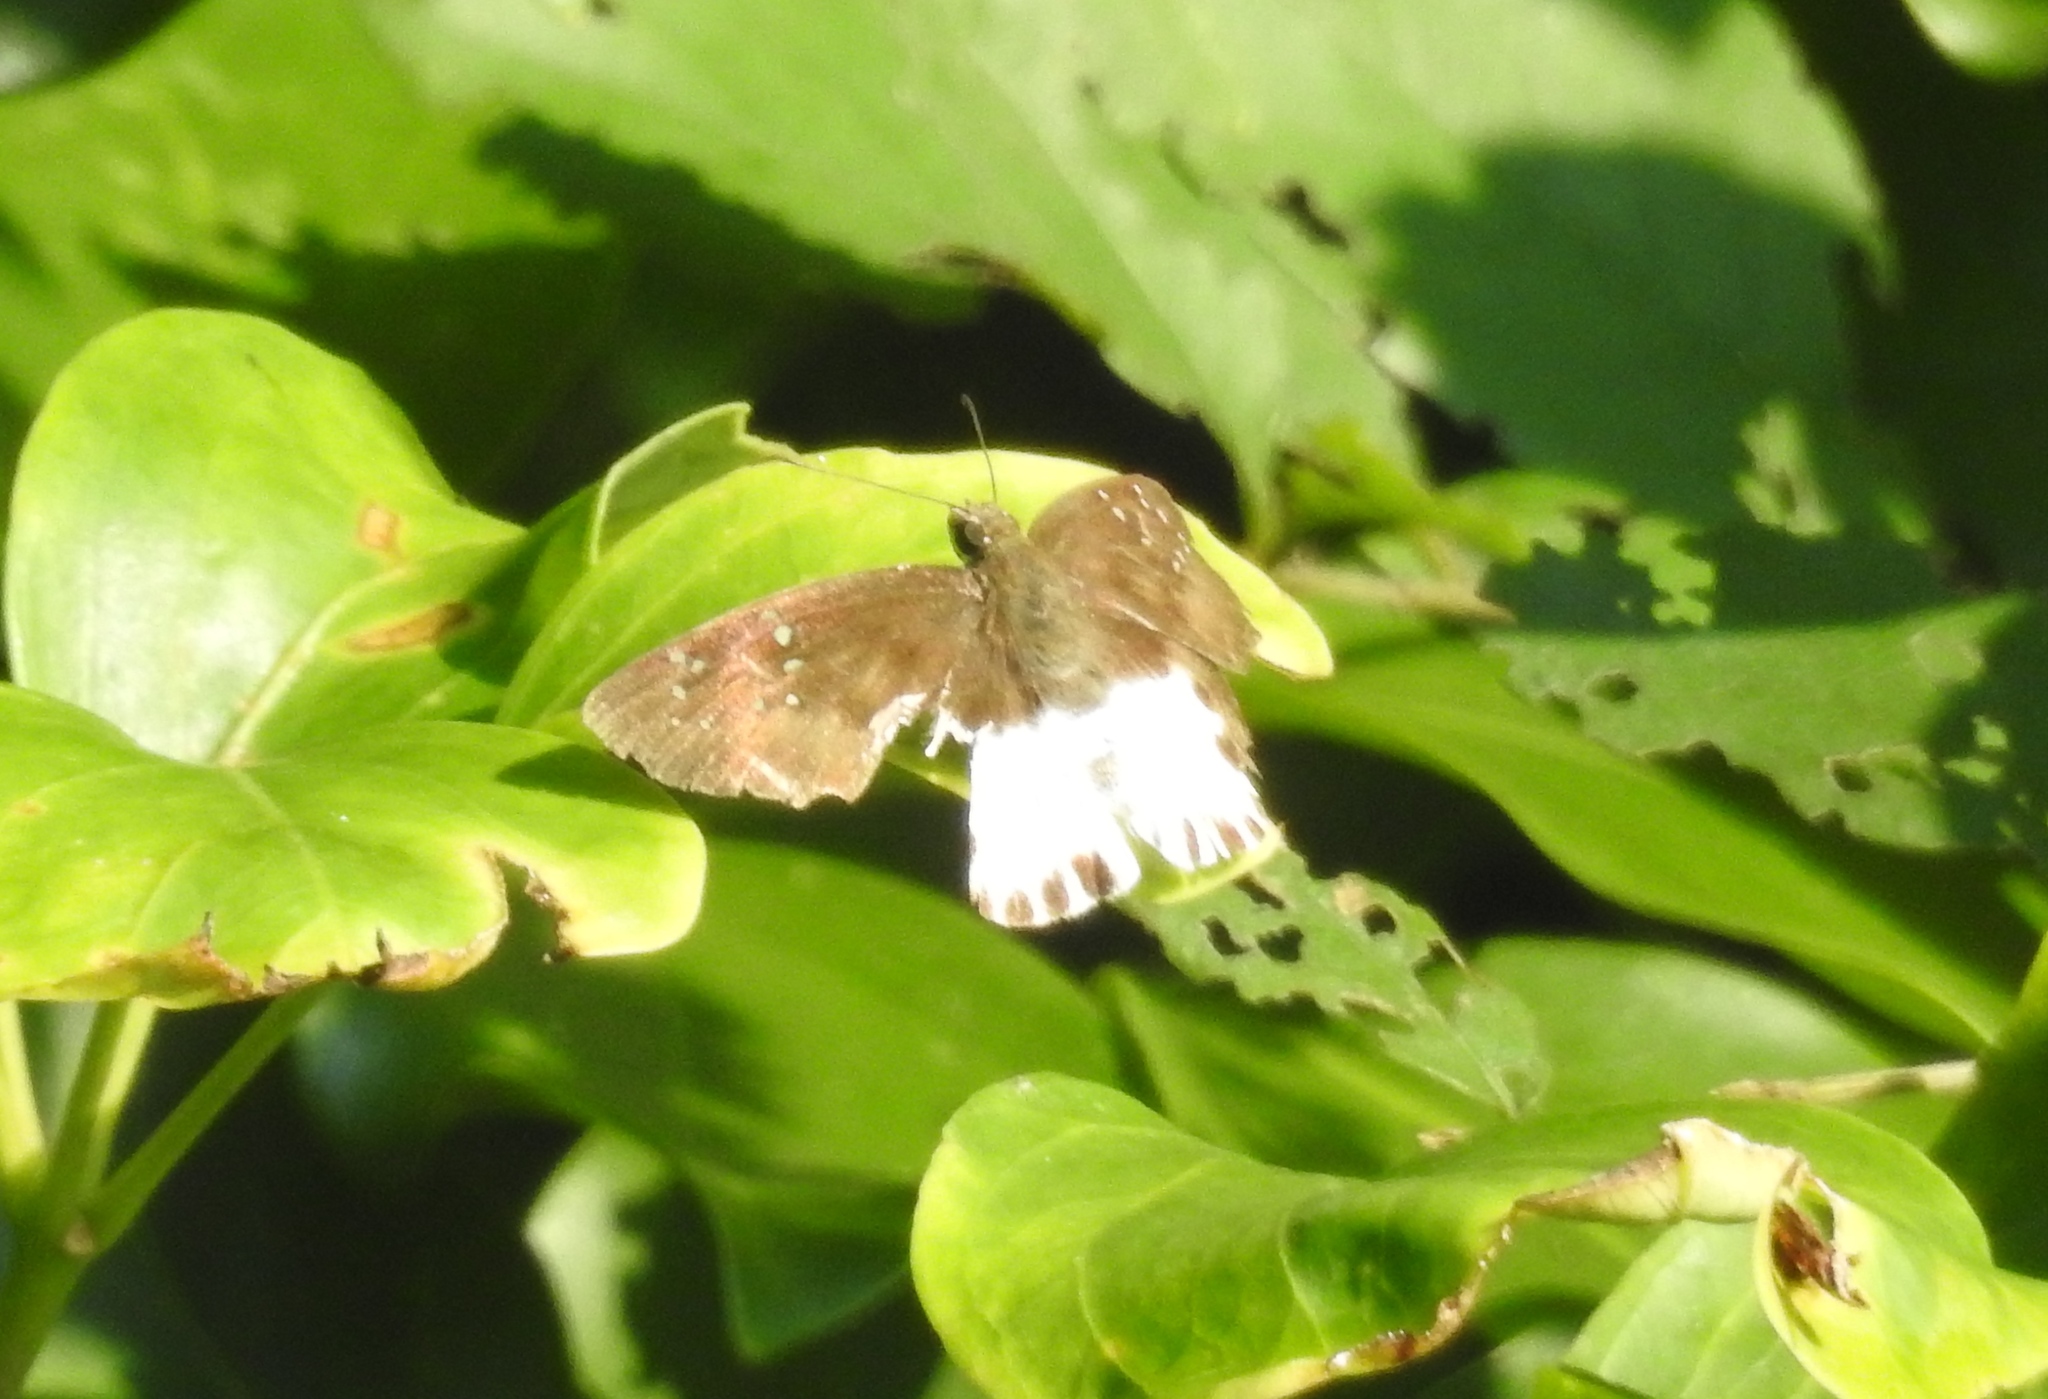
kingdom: Animalia
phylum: Arthropoda
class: Insecta
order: Lepidoptera
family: Hesperiidae
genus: Tagiades
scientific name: Tagiades litigiosa
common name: Water snow flat
